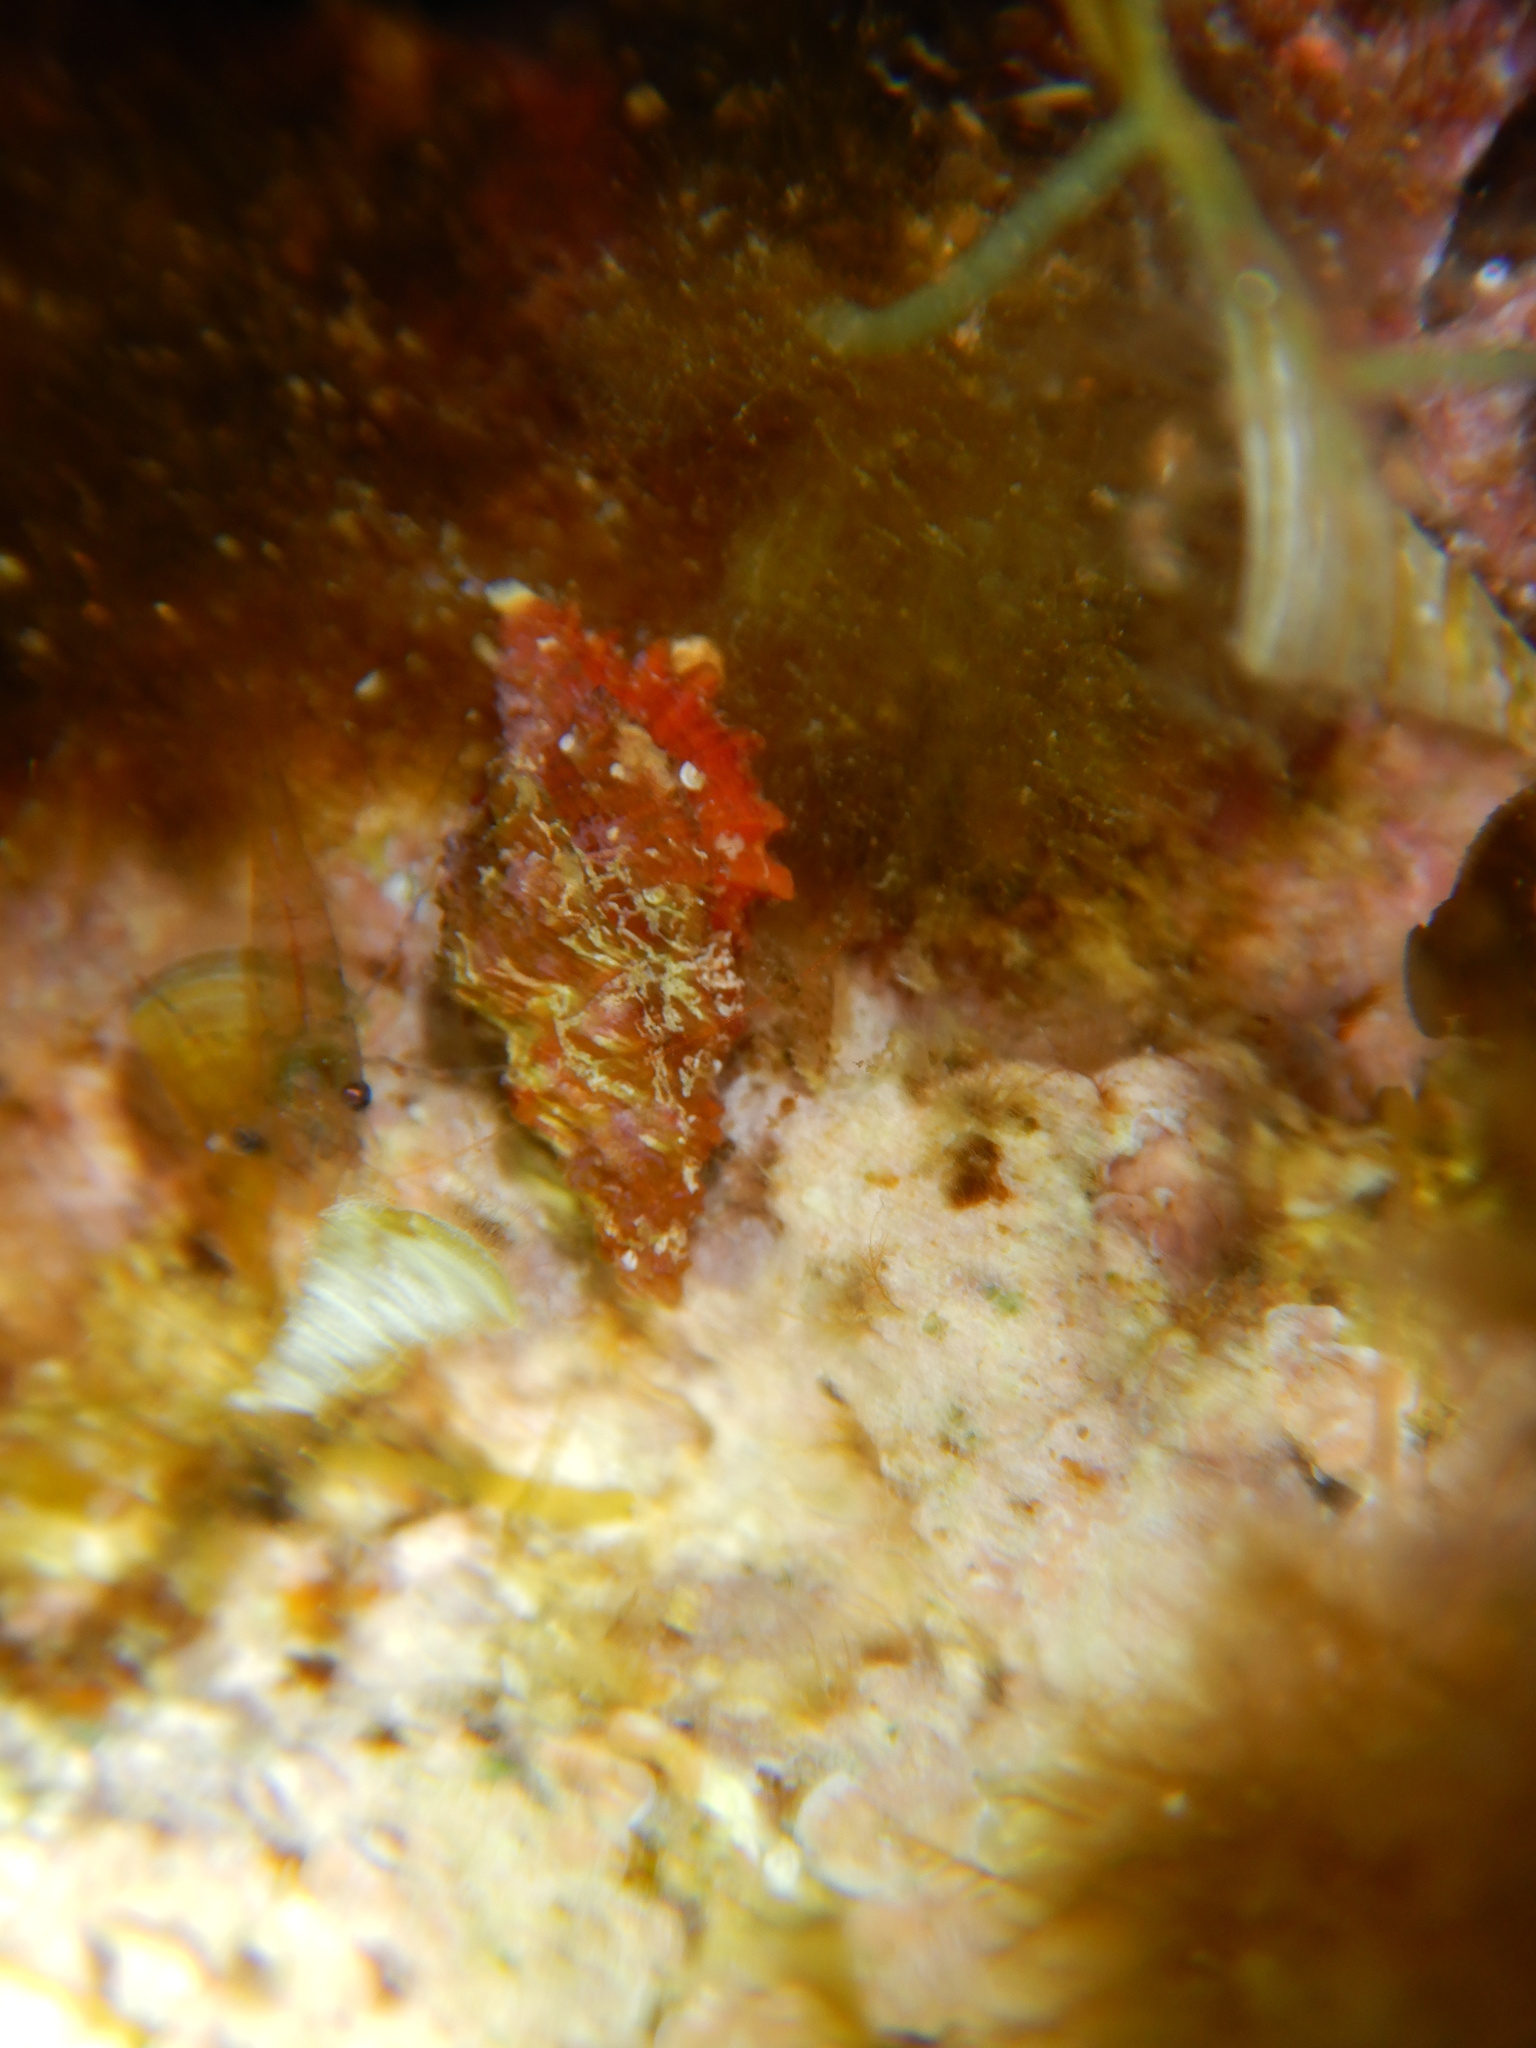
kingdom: Animalia
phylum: Mollusca
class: Gastropoda
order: Neogastropoda
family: Muricidae
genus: Muricopsis
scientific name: Muricopsis cristata
